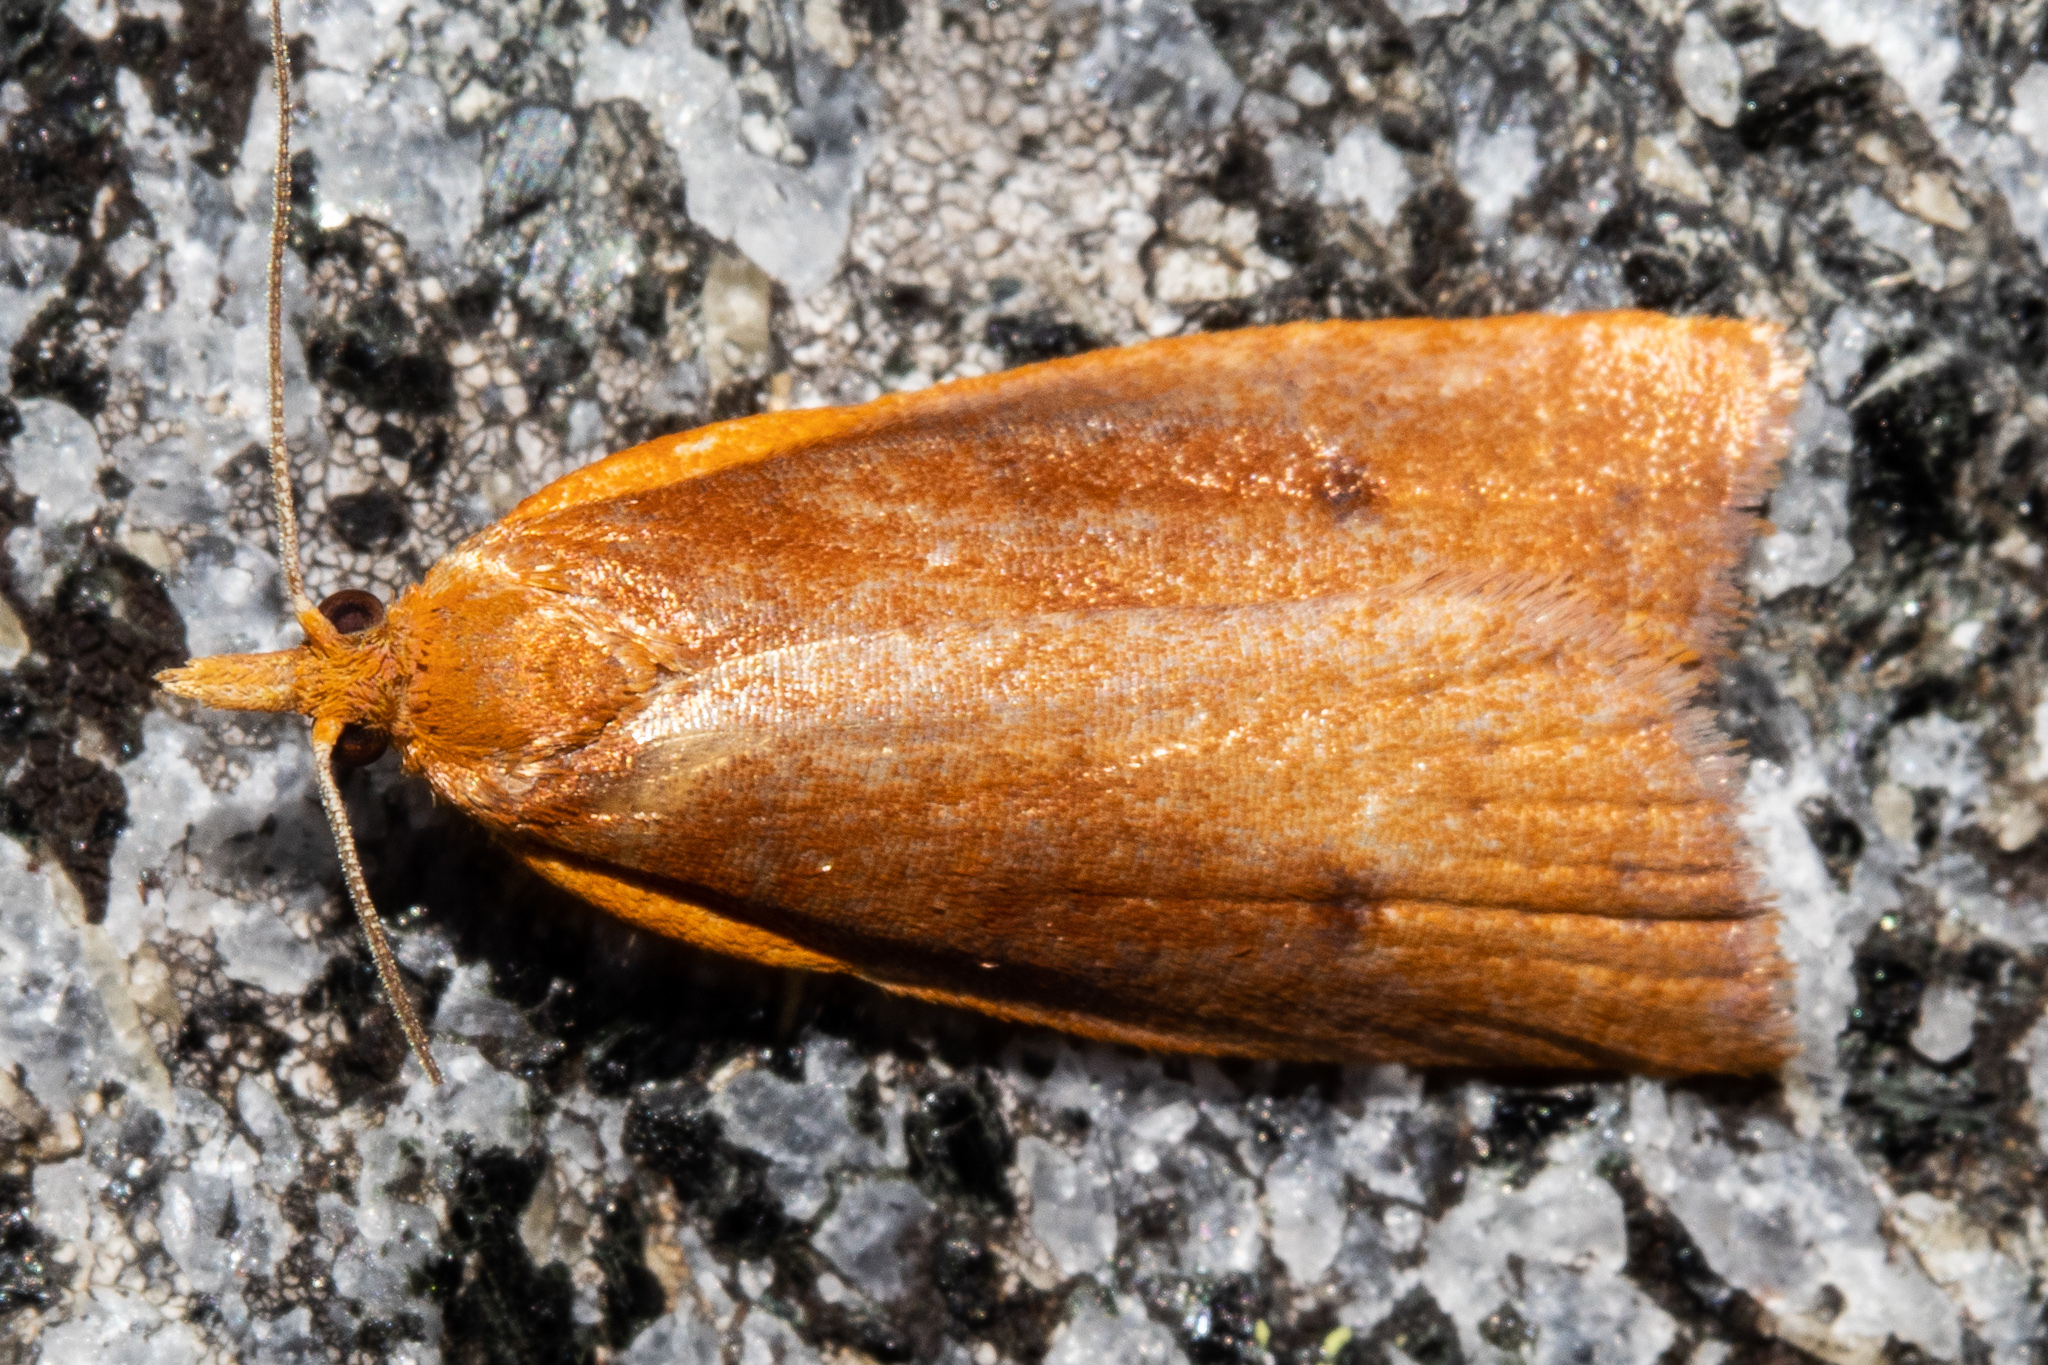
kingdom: Animalia
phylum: Arthropoda
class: Insecta
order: Lepidoptera
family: Tortricidae
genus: Planotortrix
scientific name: Planotortrix flammea
